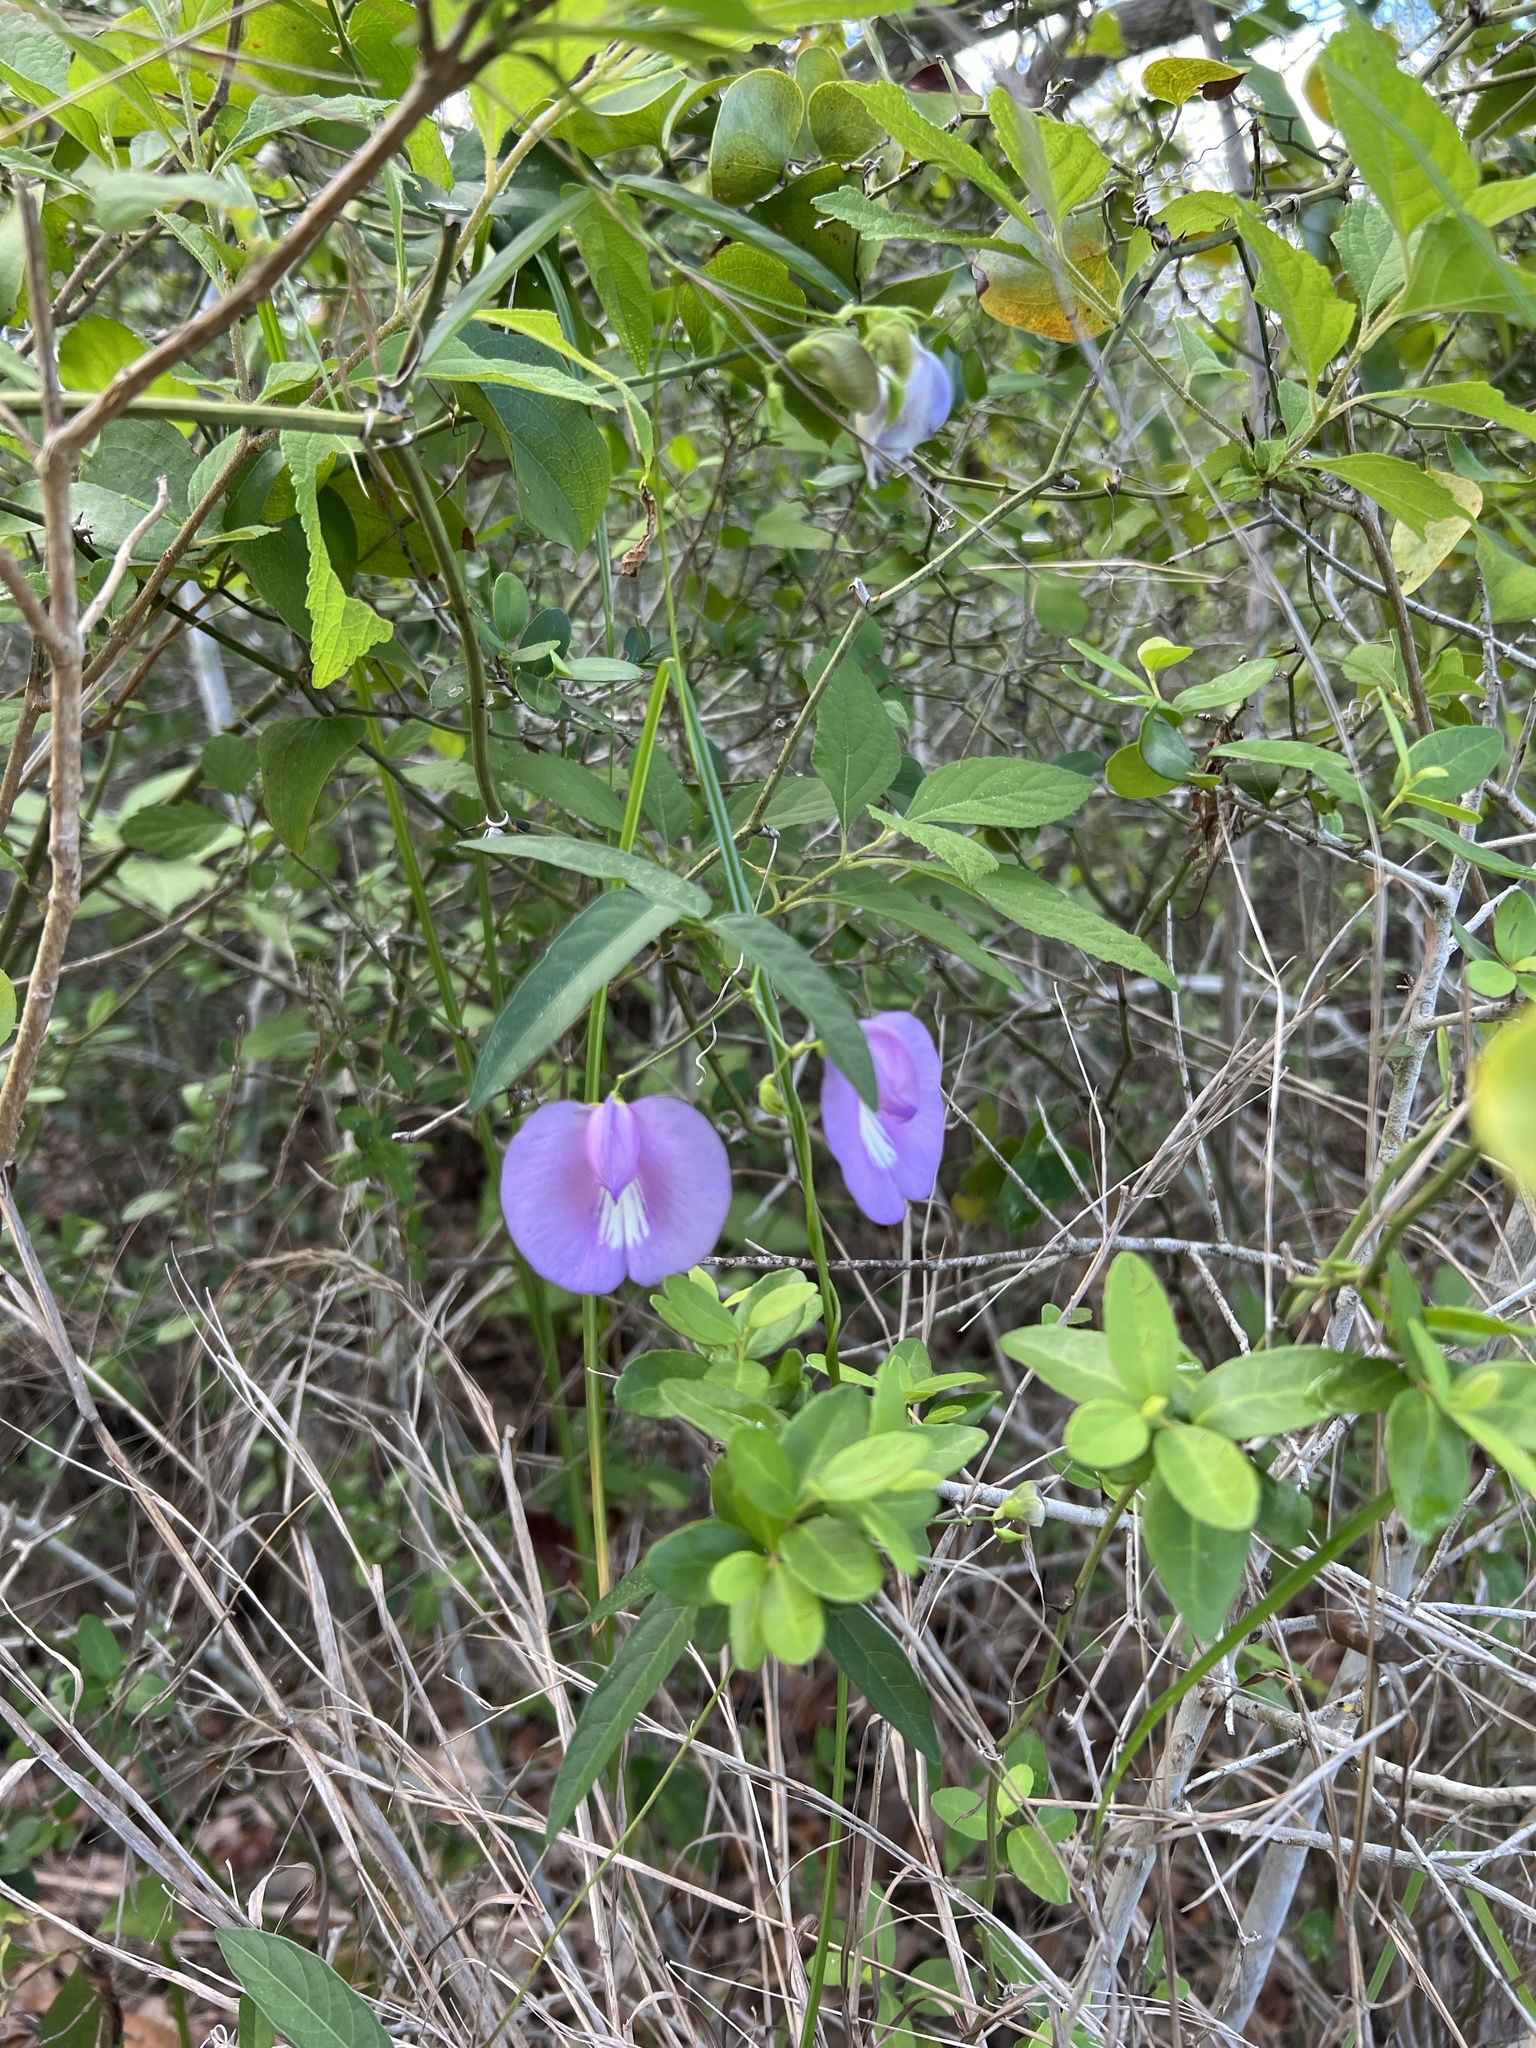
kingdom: Plantae
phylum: Tracheophyta
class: Magnoliopsida
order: Fabales
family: Fabaceae
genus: Centrosema
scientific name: Centrosema virginianum
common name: Butterfly-pea
